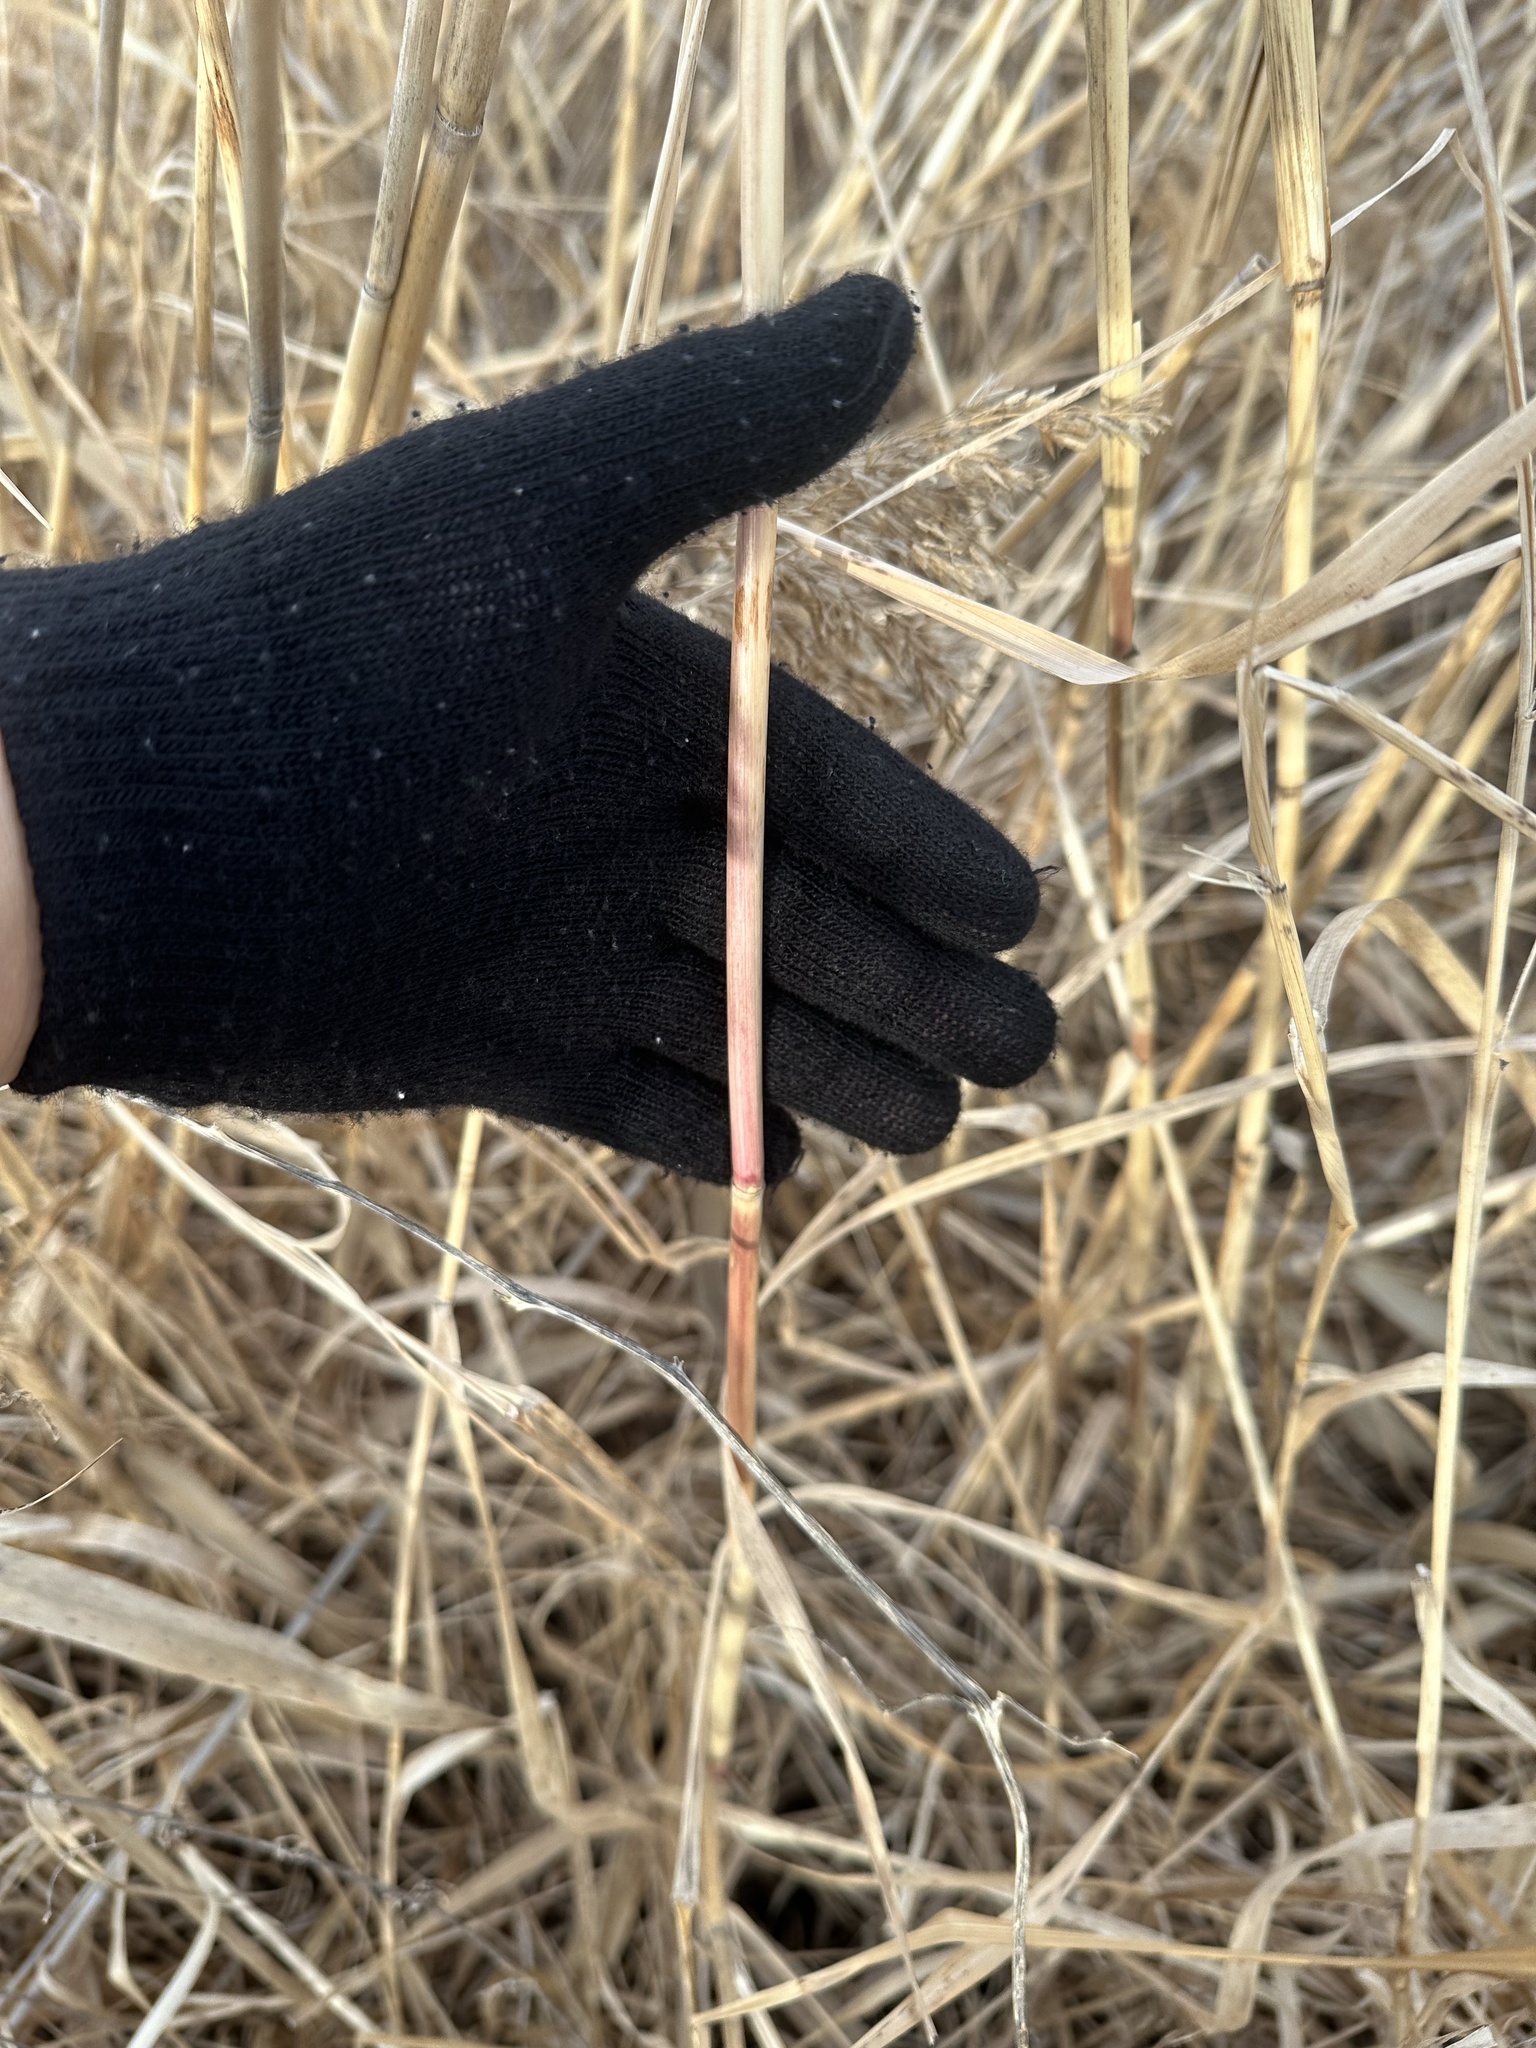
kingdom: Plantae
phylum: Tracheophyta
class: Liliopsida
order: Poales
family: Poaceae
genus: Phragmites
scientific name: Phragmites australis
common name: Common reed
